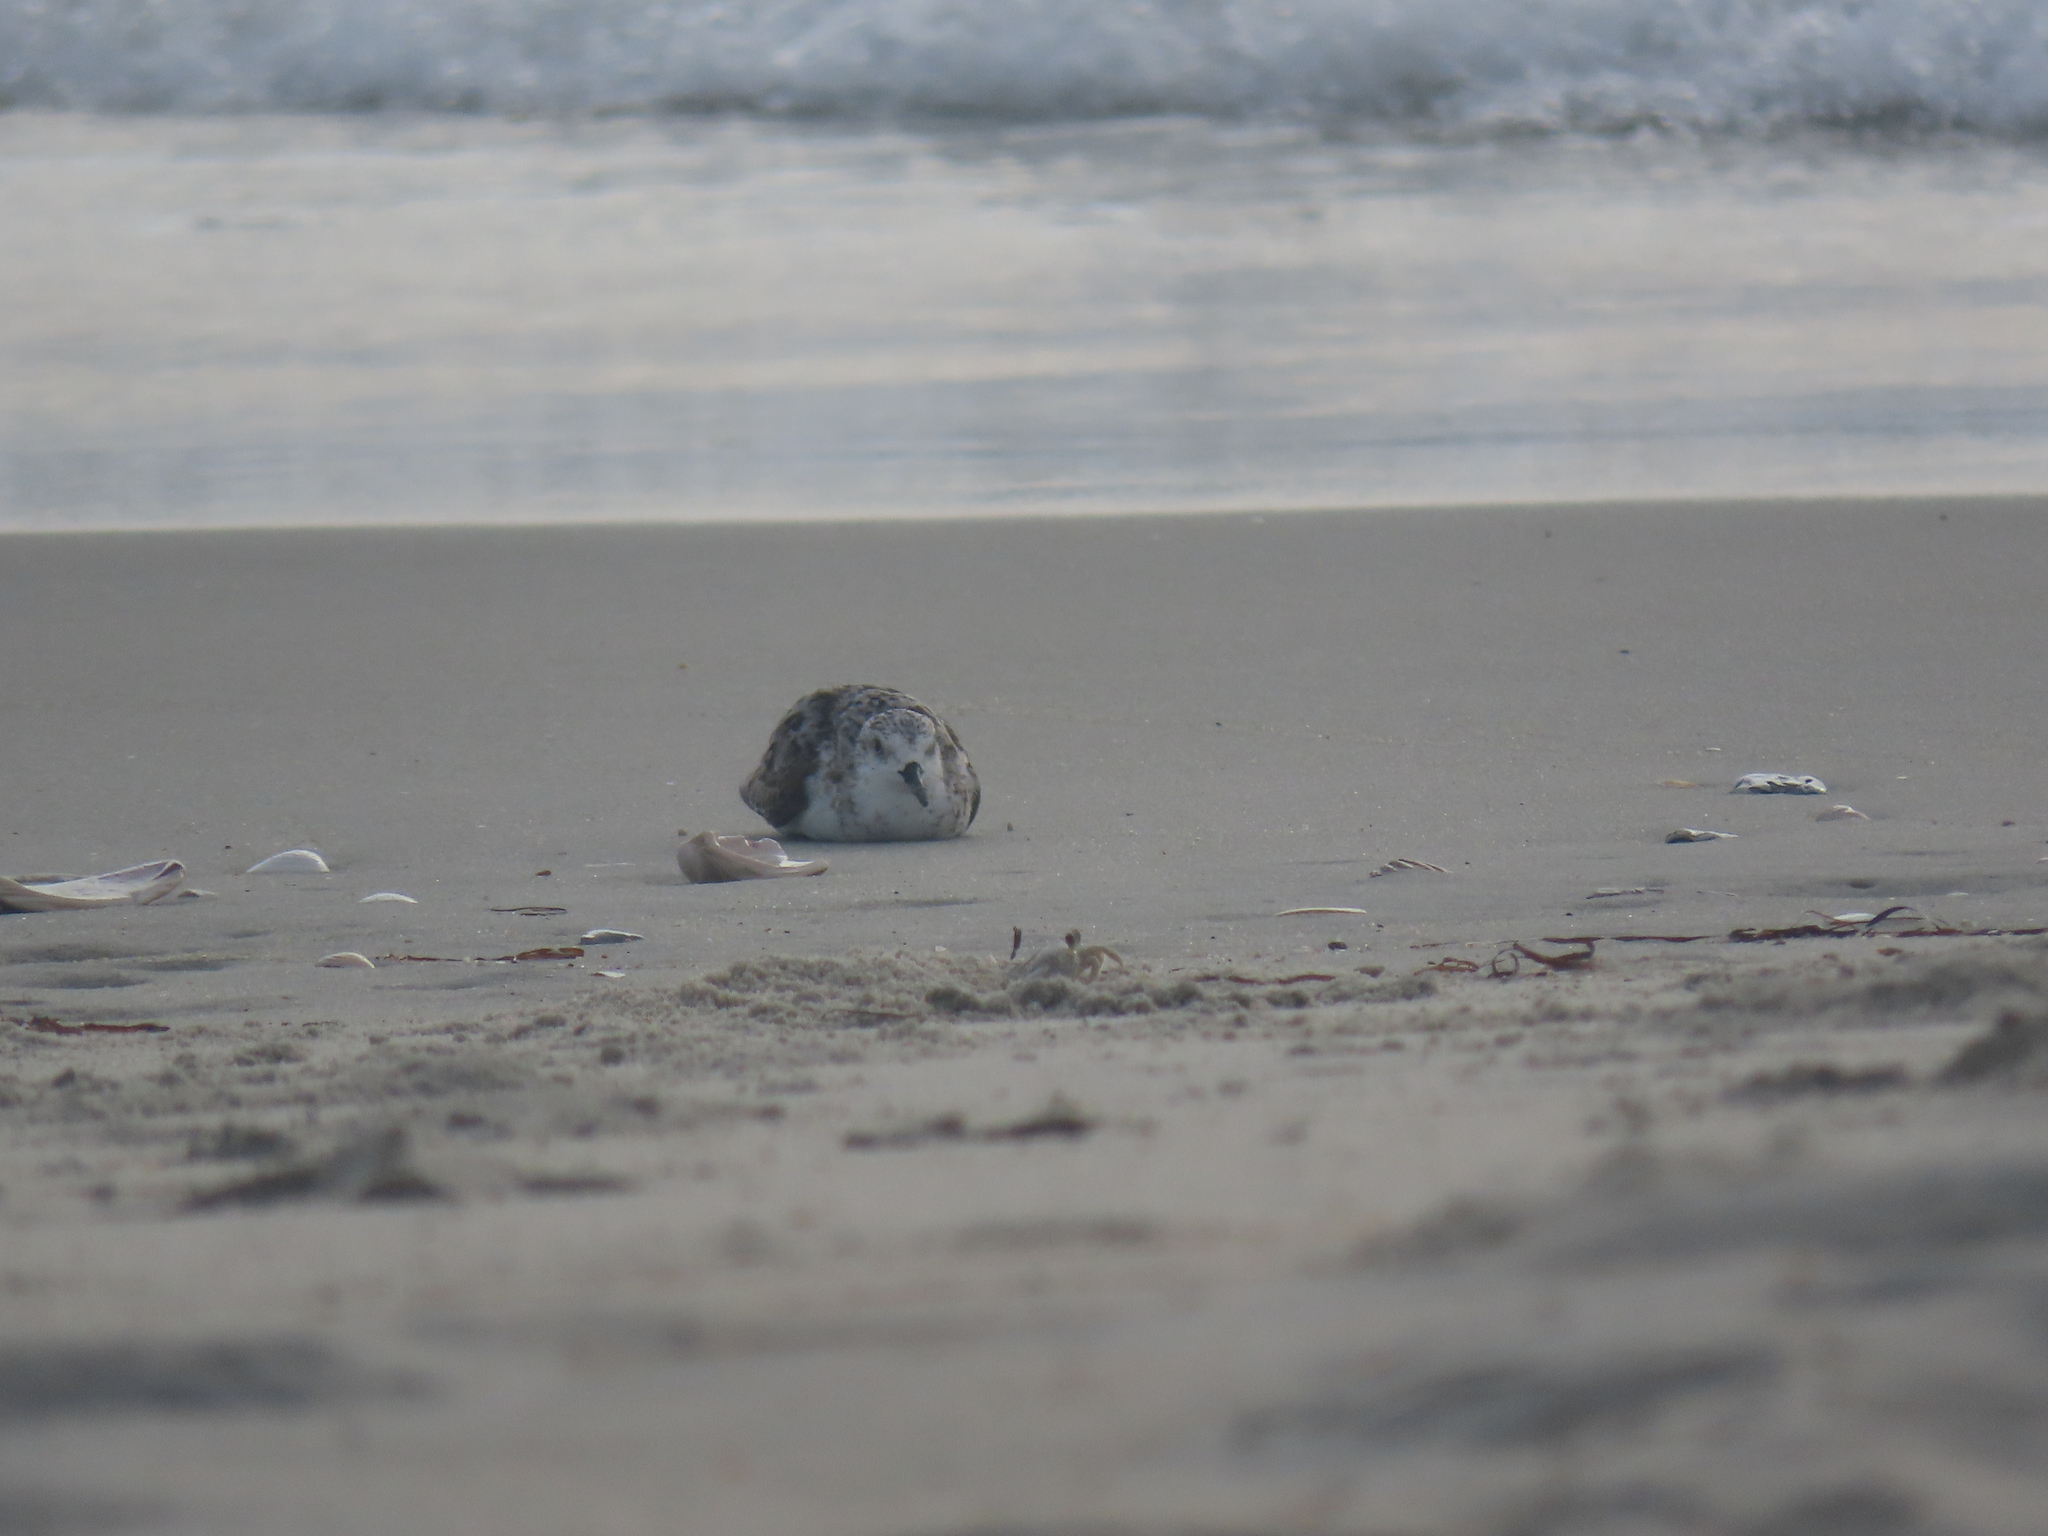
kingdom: Animalia
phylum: Chordata
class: Aves
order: Charadriiformes
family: Scolopacidae
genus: Calidris
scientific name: Calidris alba
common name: Sanderling
